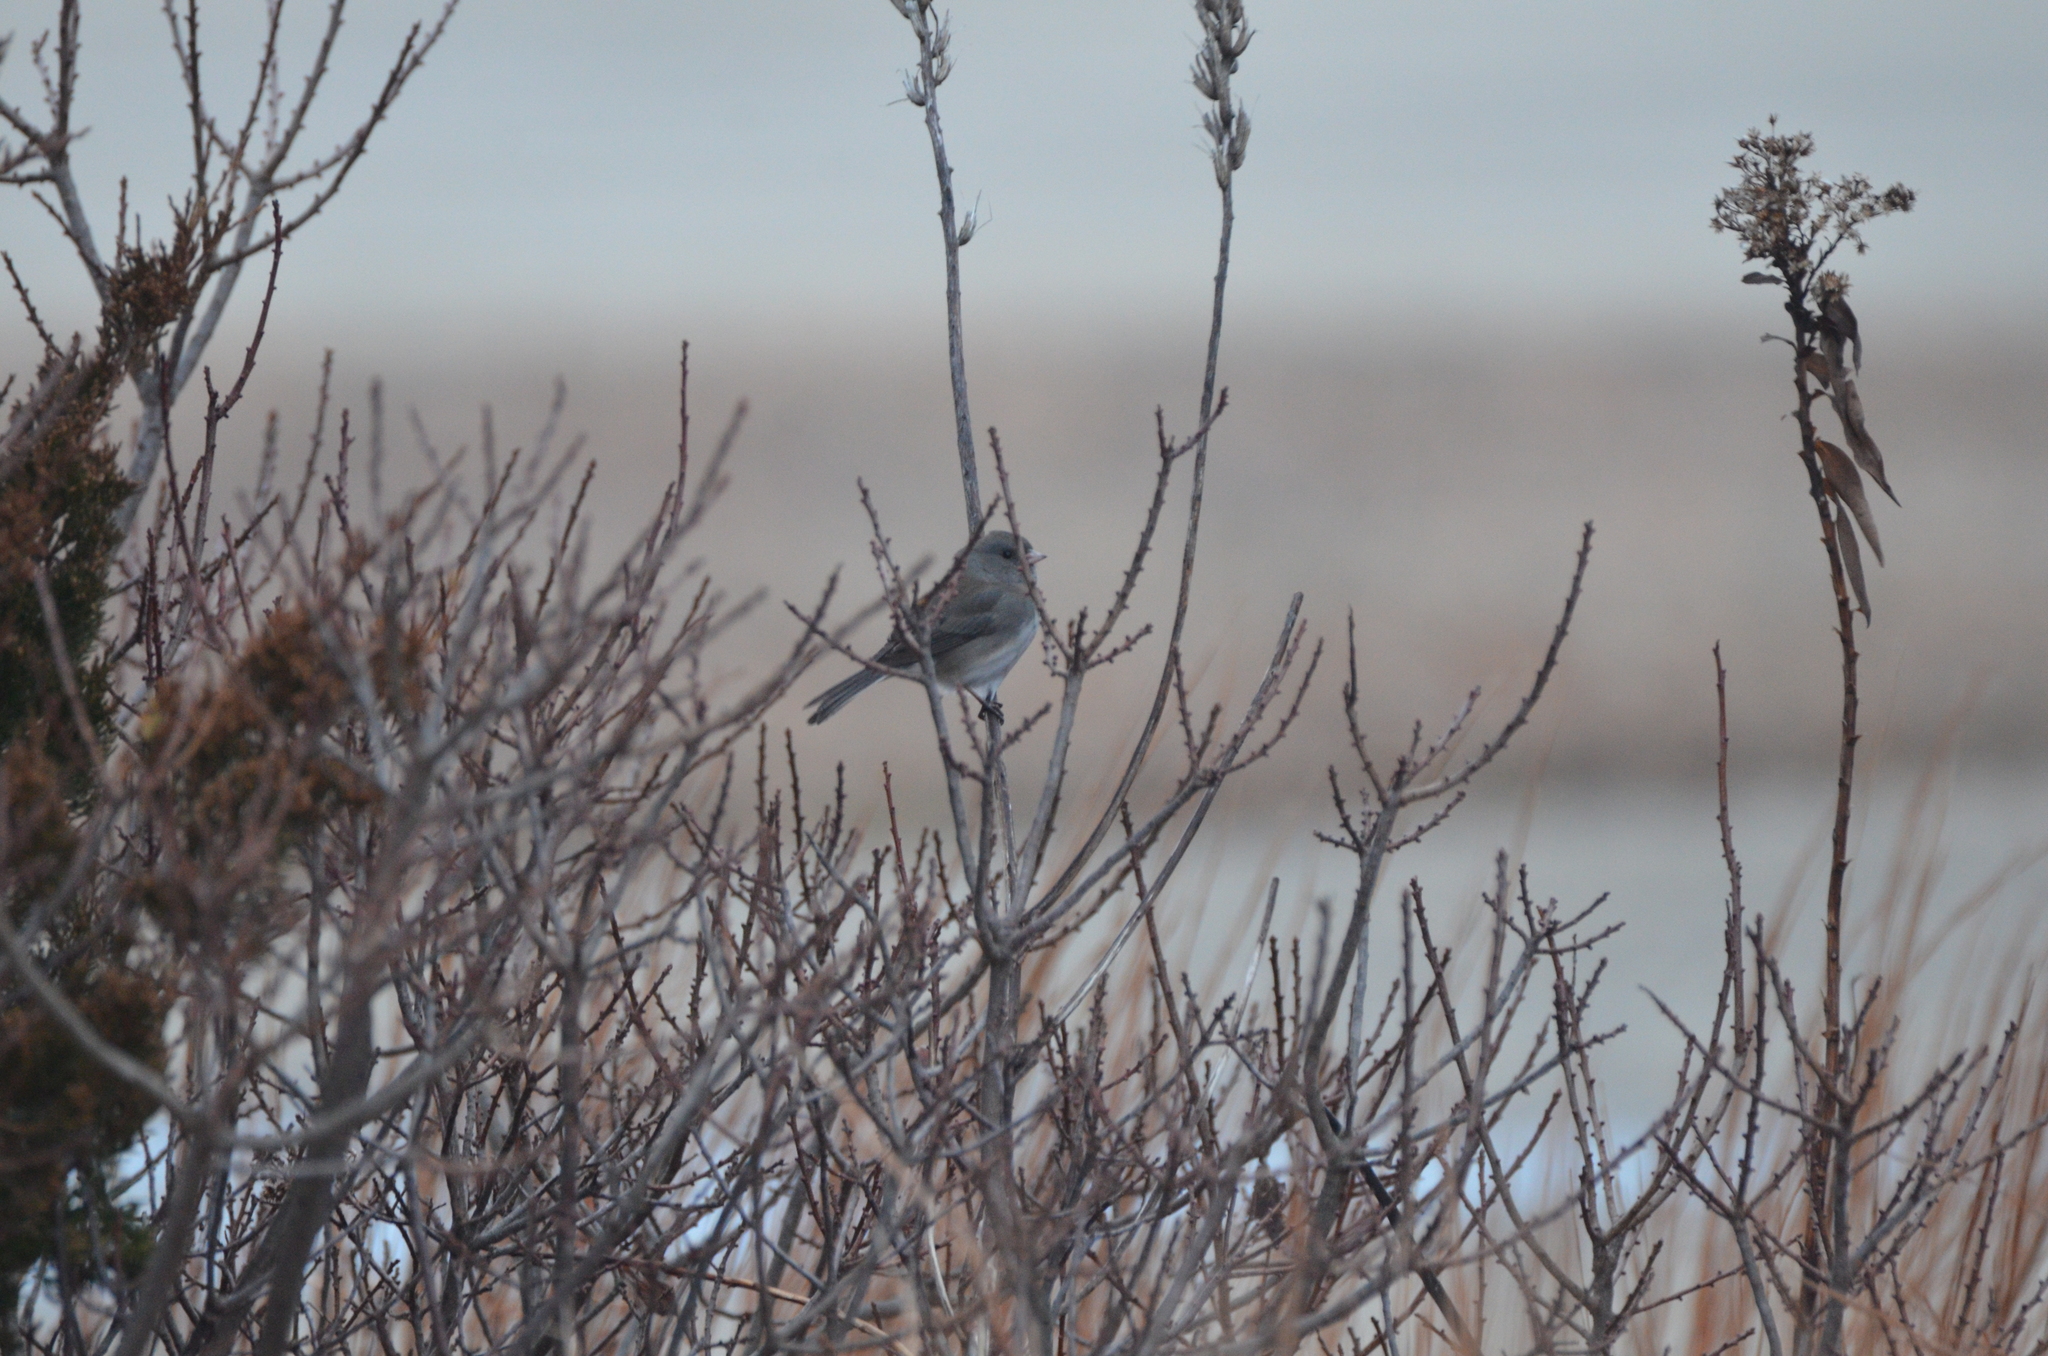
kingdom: Animalia
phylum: Chordata
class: Aves
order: Passeriformes
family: Passerellidae
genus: Junco
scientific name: Junco hyemalis
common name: Dark-eyed junco
